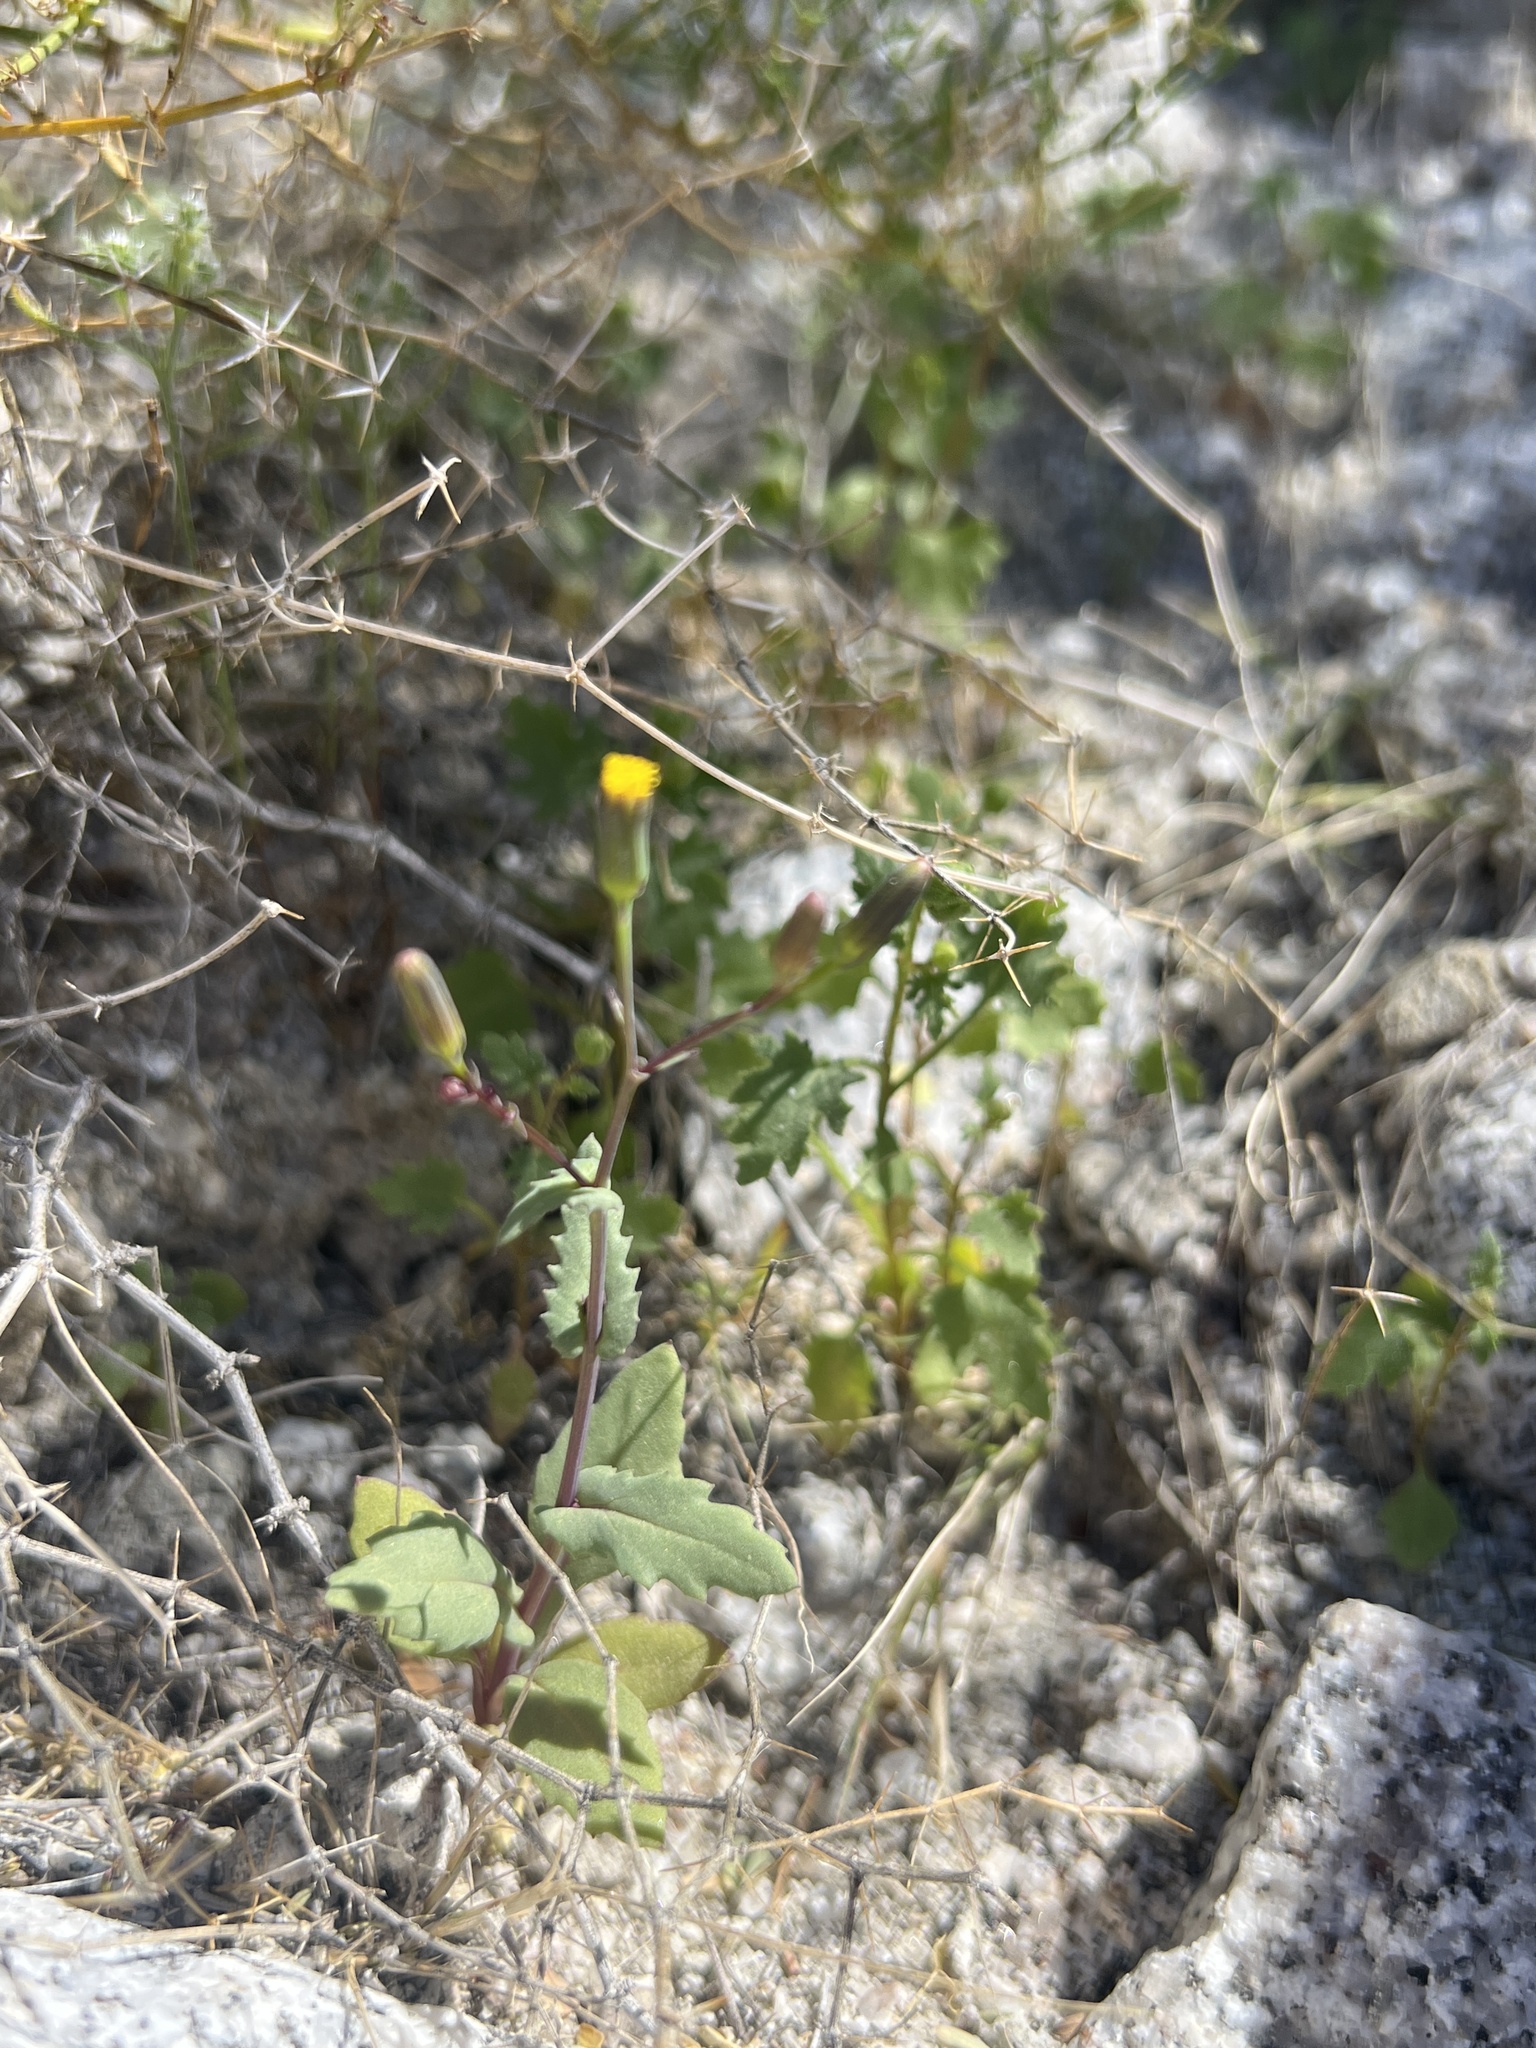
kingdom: Plantae
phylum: Tracheophyta
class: Magnoliopsida
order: Asterales
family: Asteraceae
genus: Senecio
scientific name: Senecio mohavensis
